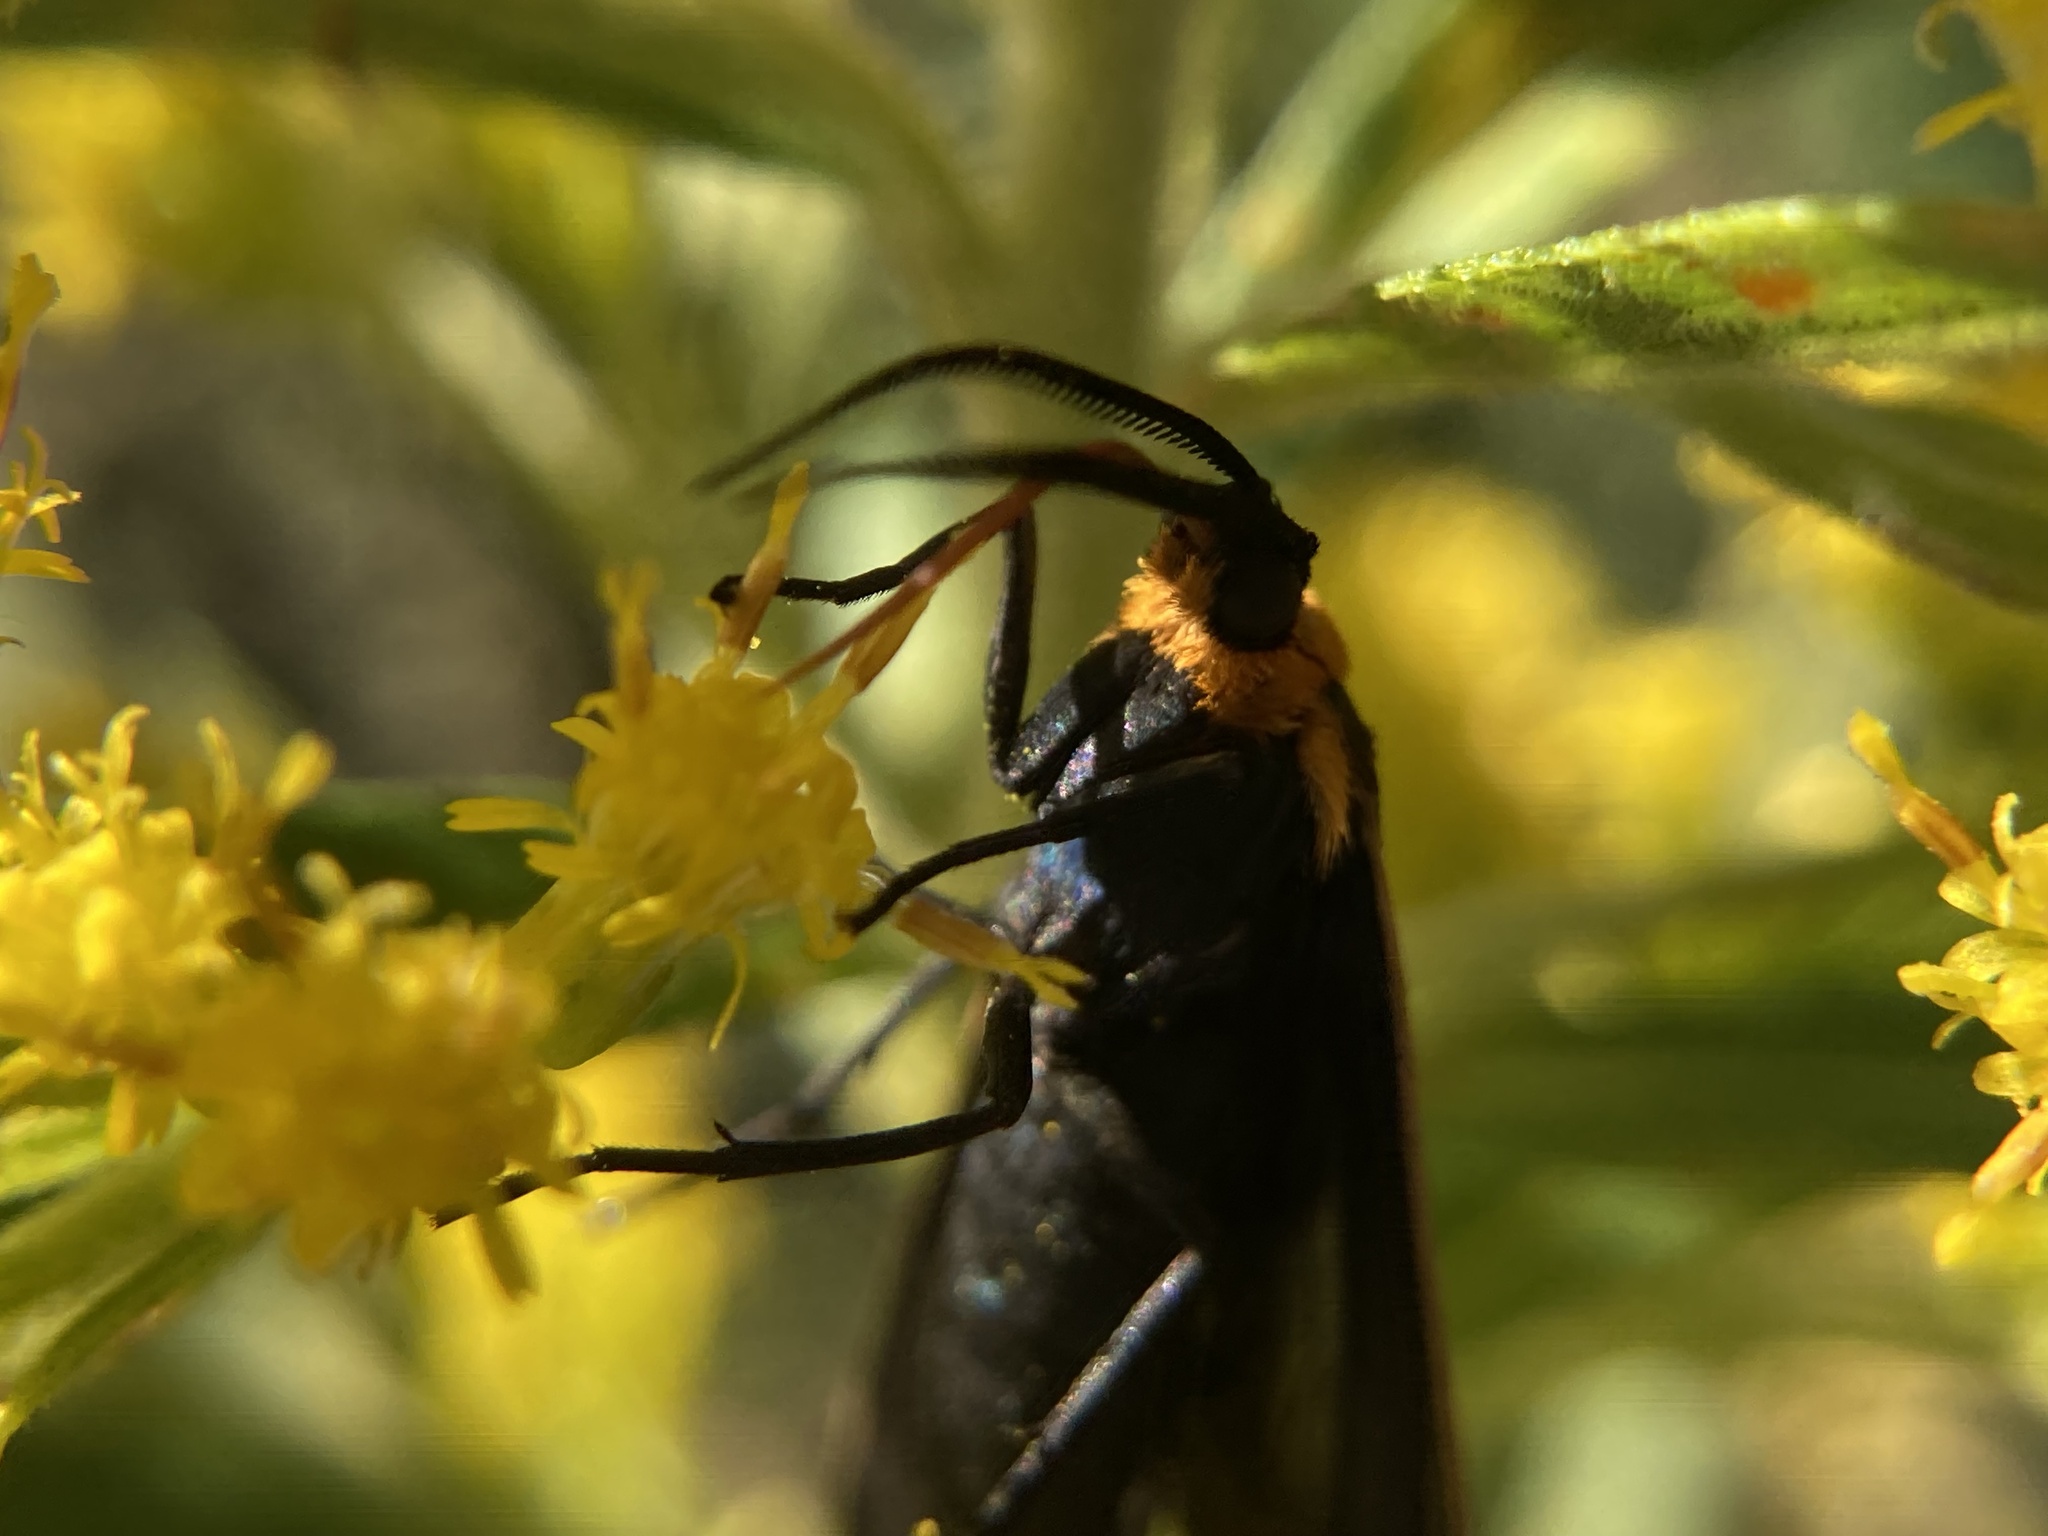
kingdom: Animalia
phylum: Arthropoda
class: Insecta
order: Lepidoptera
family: Erebidae
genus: Cisseps
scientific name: Cisseps fulvicollis
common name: Yellow-collared scape moth
